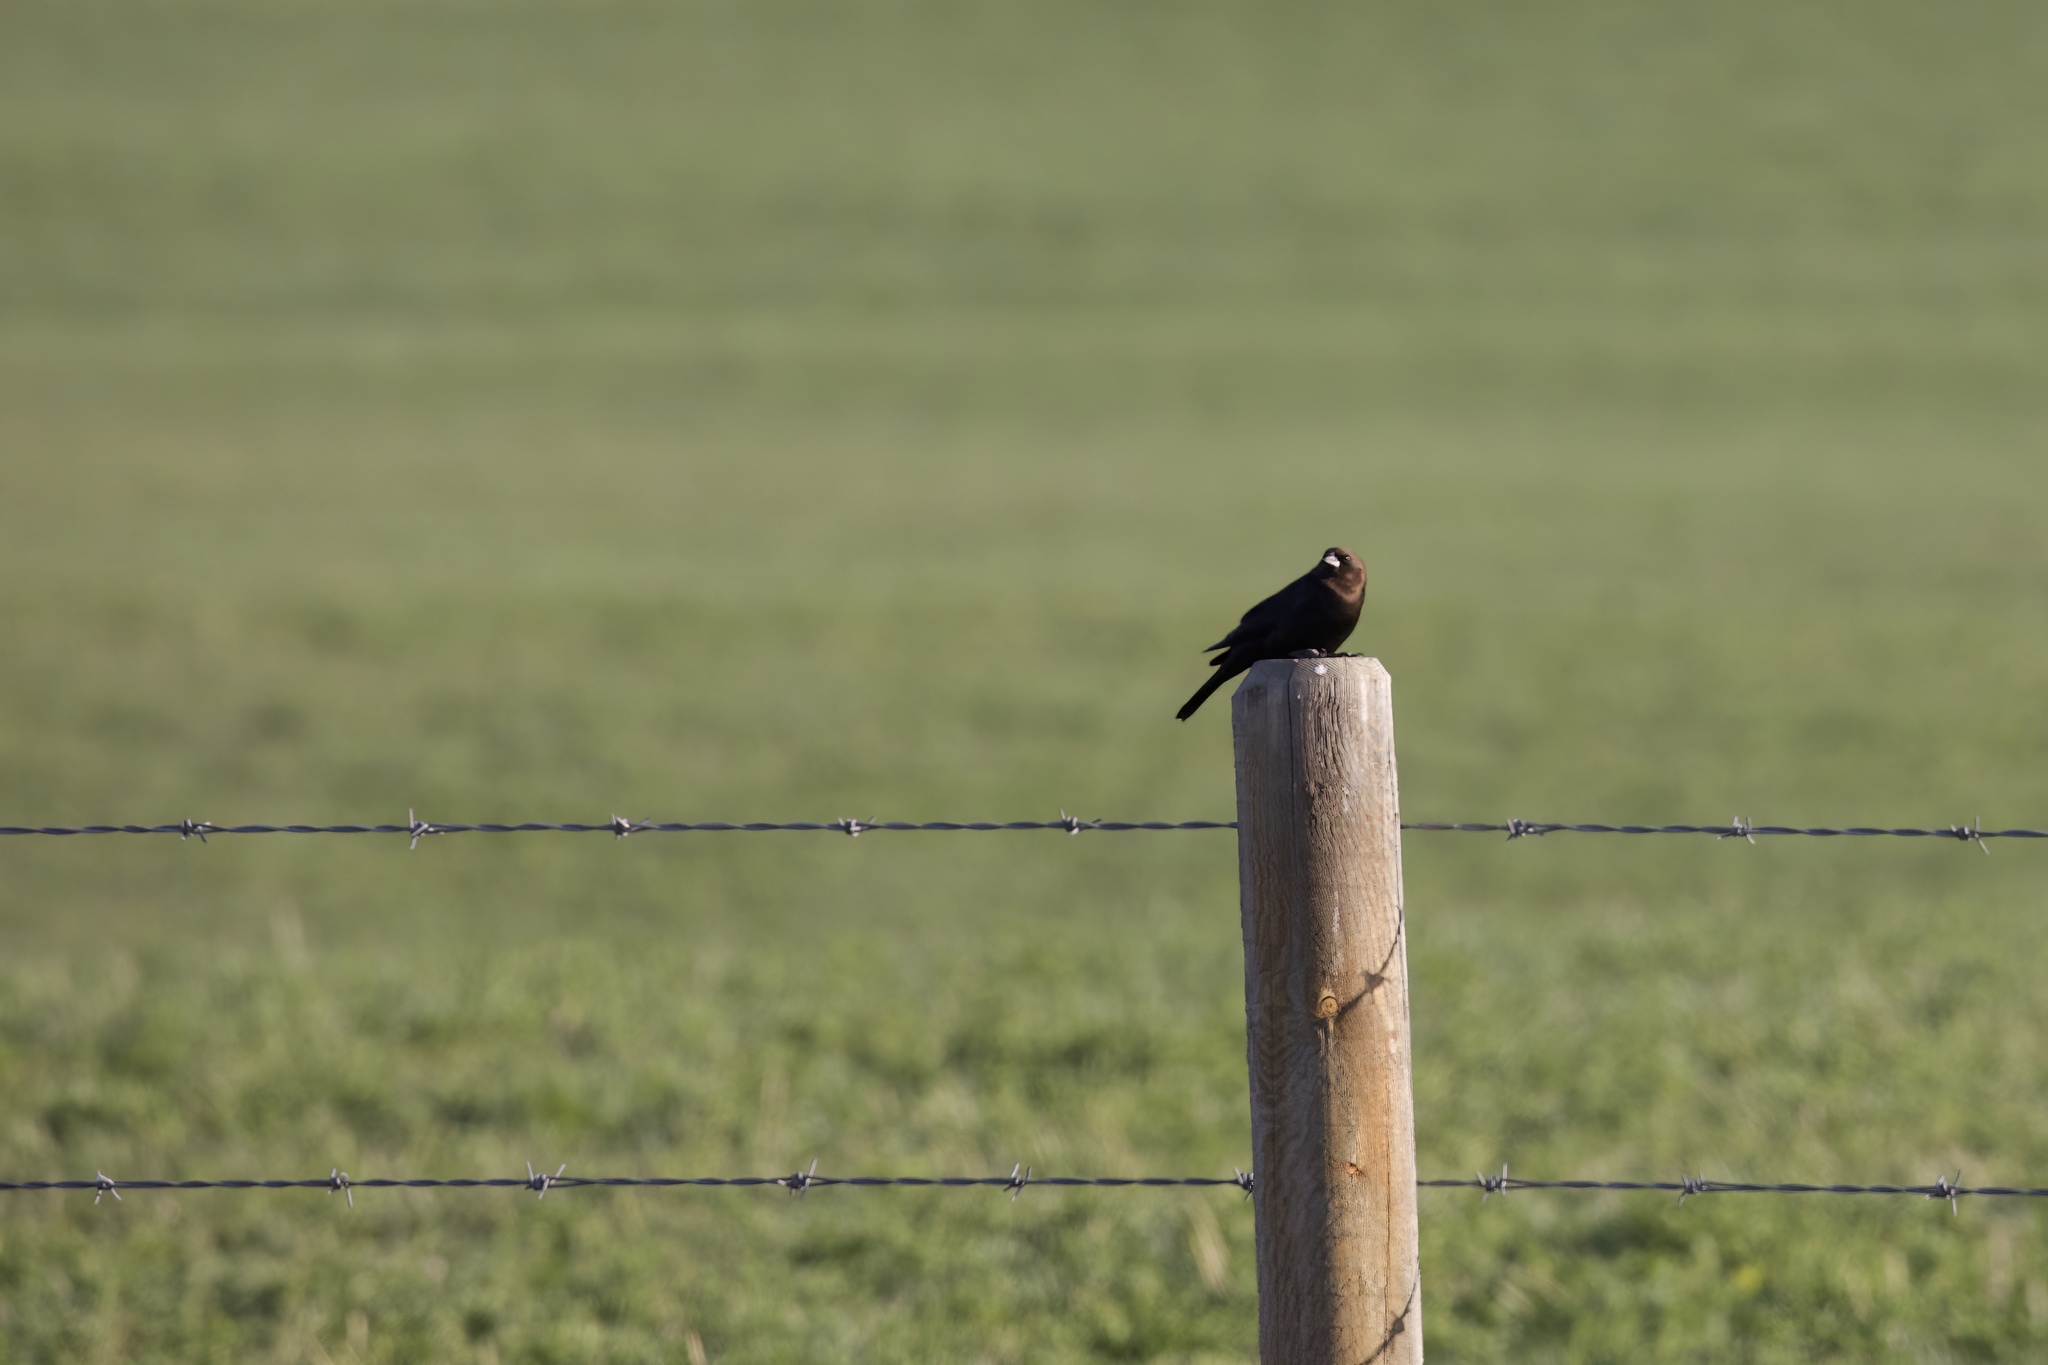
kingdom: Animalia
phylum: Chordata
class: Aves
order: Passeriformes
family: Icteridae
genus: Molothrus
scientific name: Molothrus ater
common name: Brown-headed cowbird
